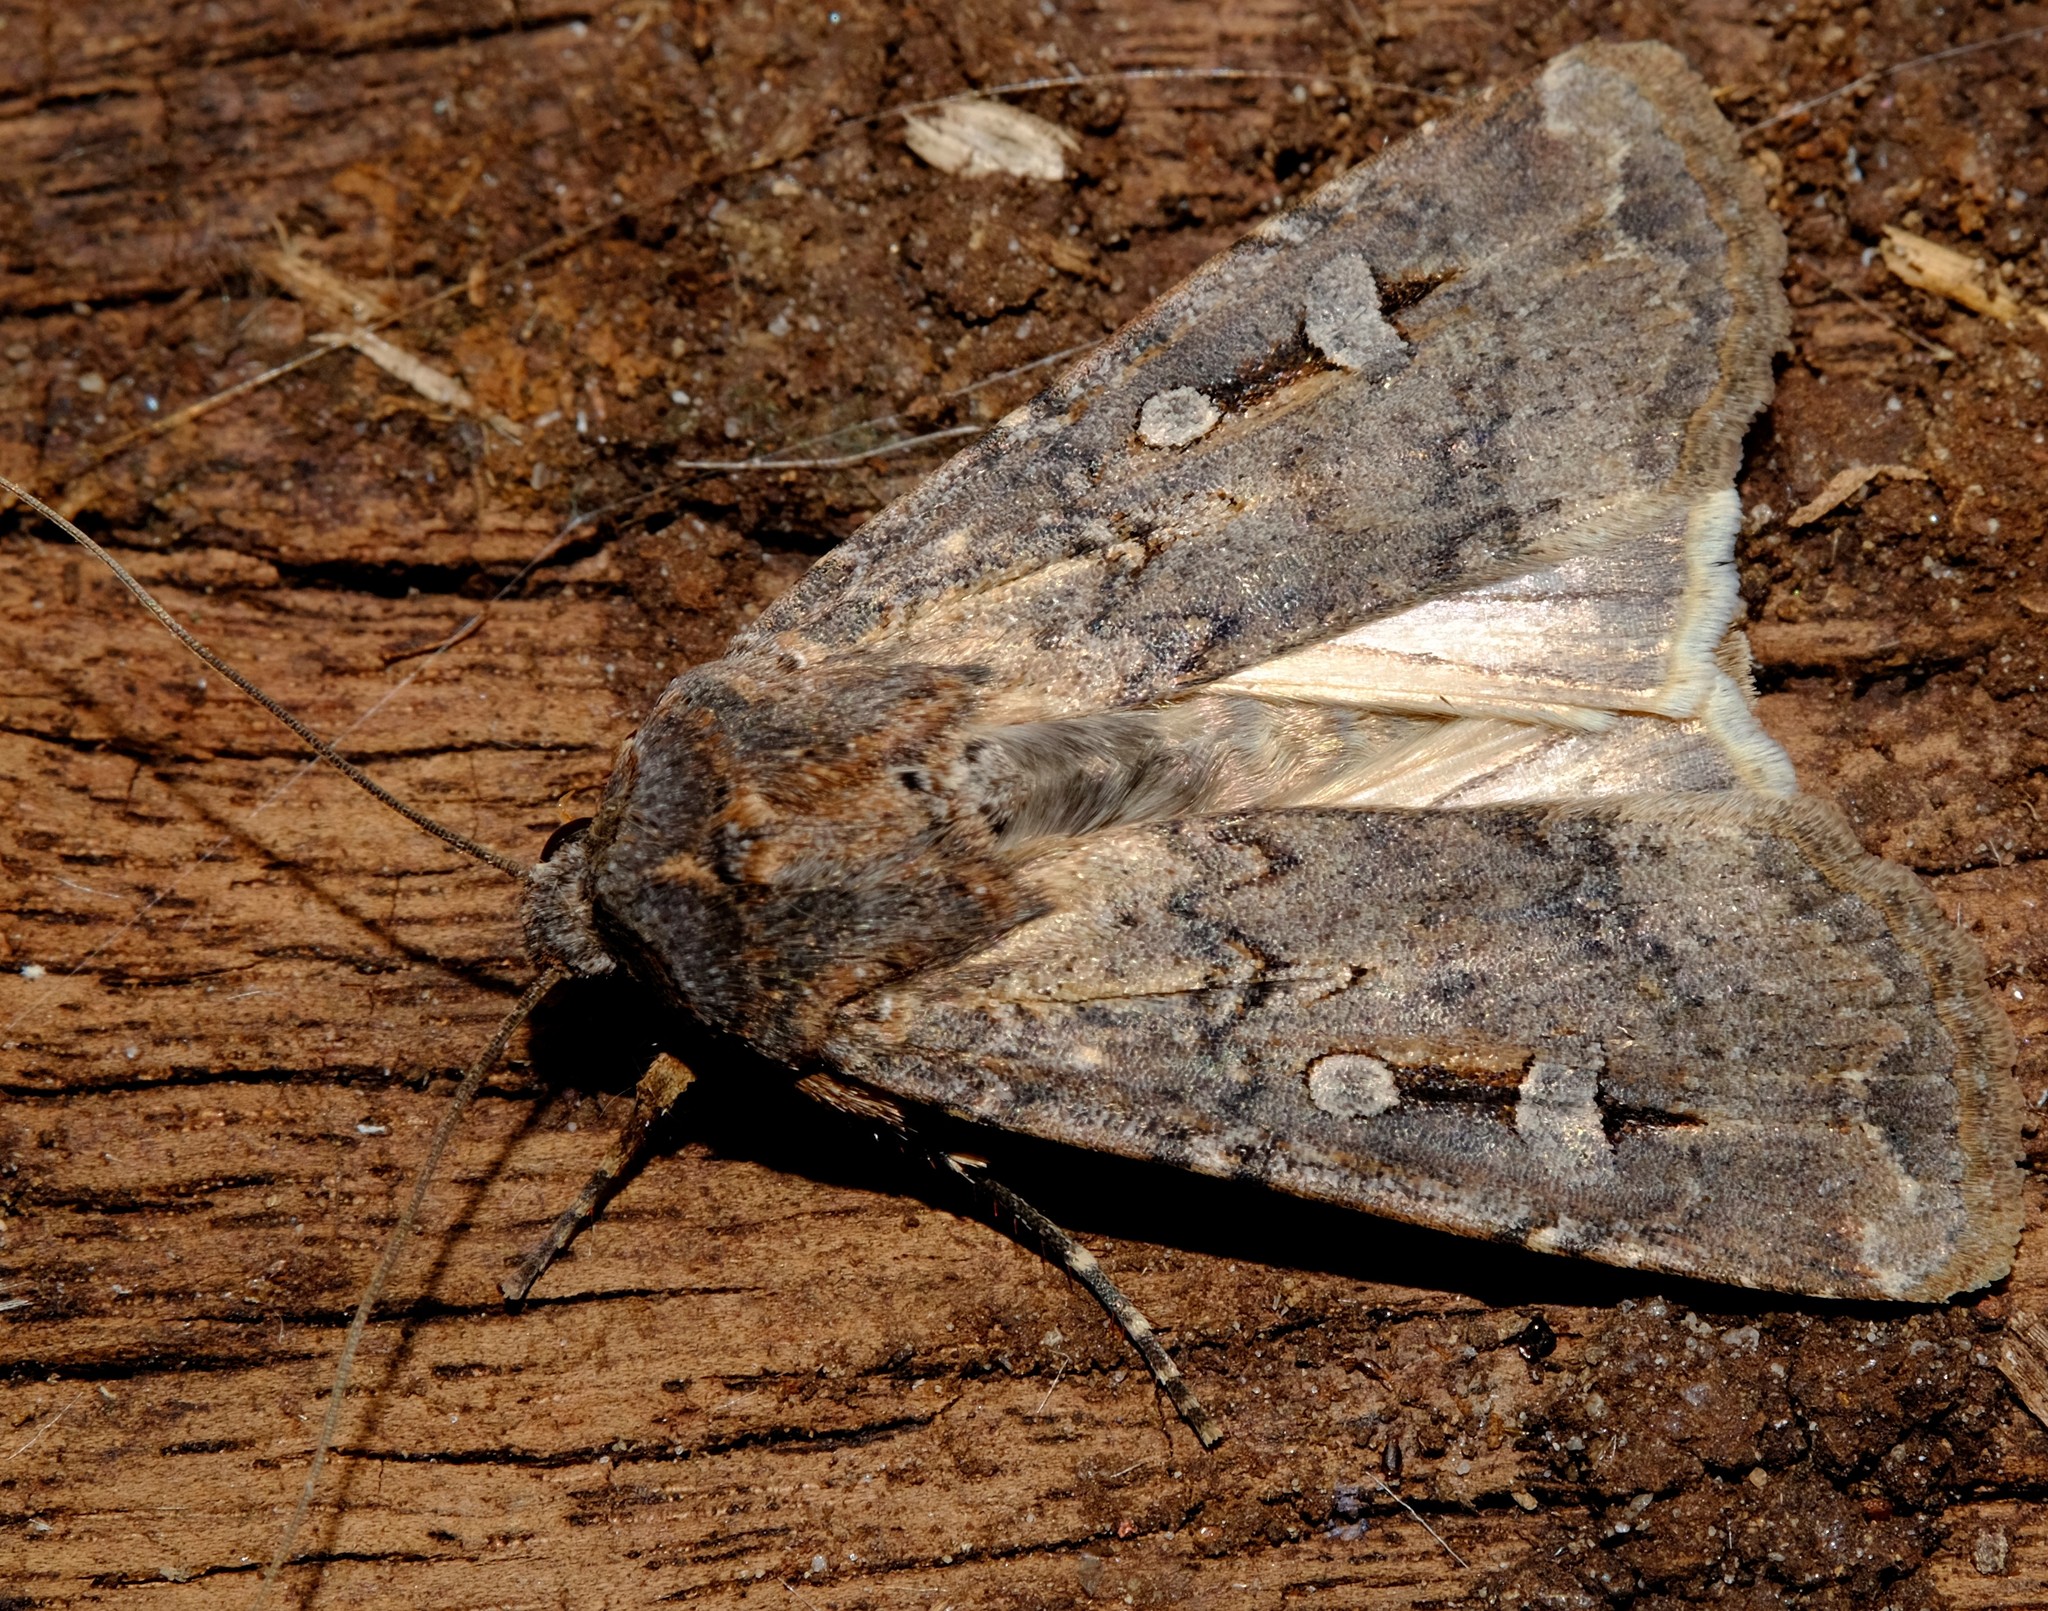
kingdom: Animalia
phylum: Arthropoda
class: Insecta
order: Lepidoptera
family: Noctuidae
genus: Agrotis
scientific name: Agrotis infusa
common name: Bogong moth
